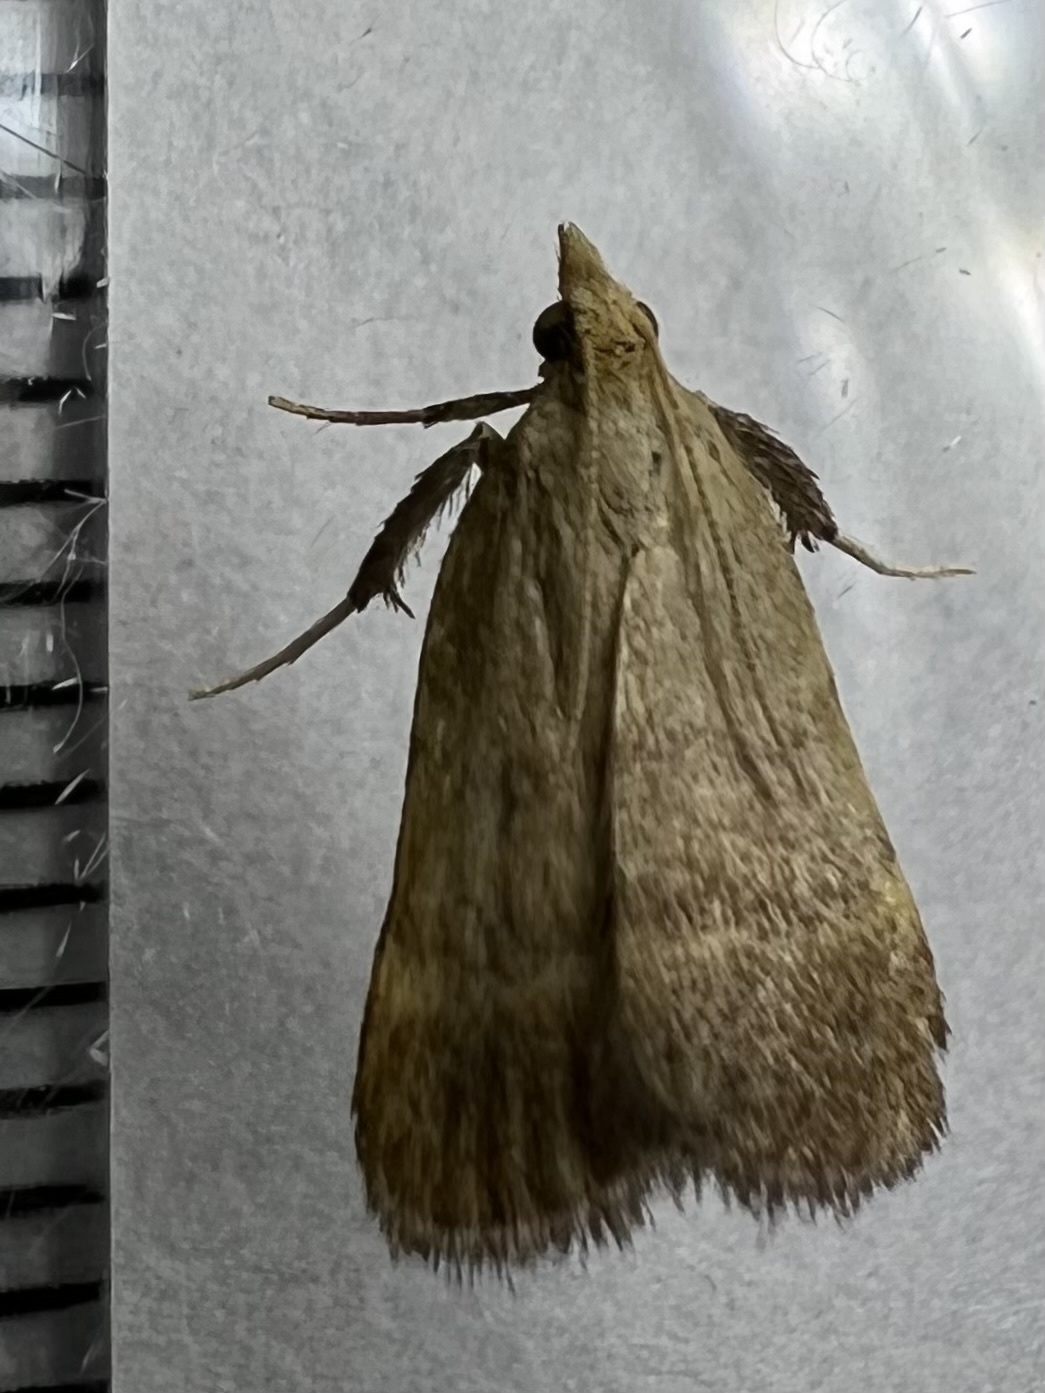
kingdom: Animalia
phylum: Arthropoda
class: Insecta
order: Lepidoptera
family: Pyralidae
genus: Condylolomia
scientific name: Condylolomia participialis
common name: Drab condylolomia moth
